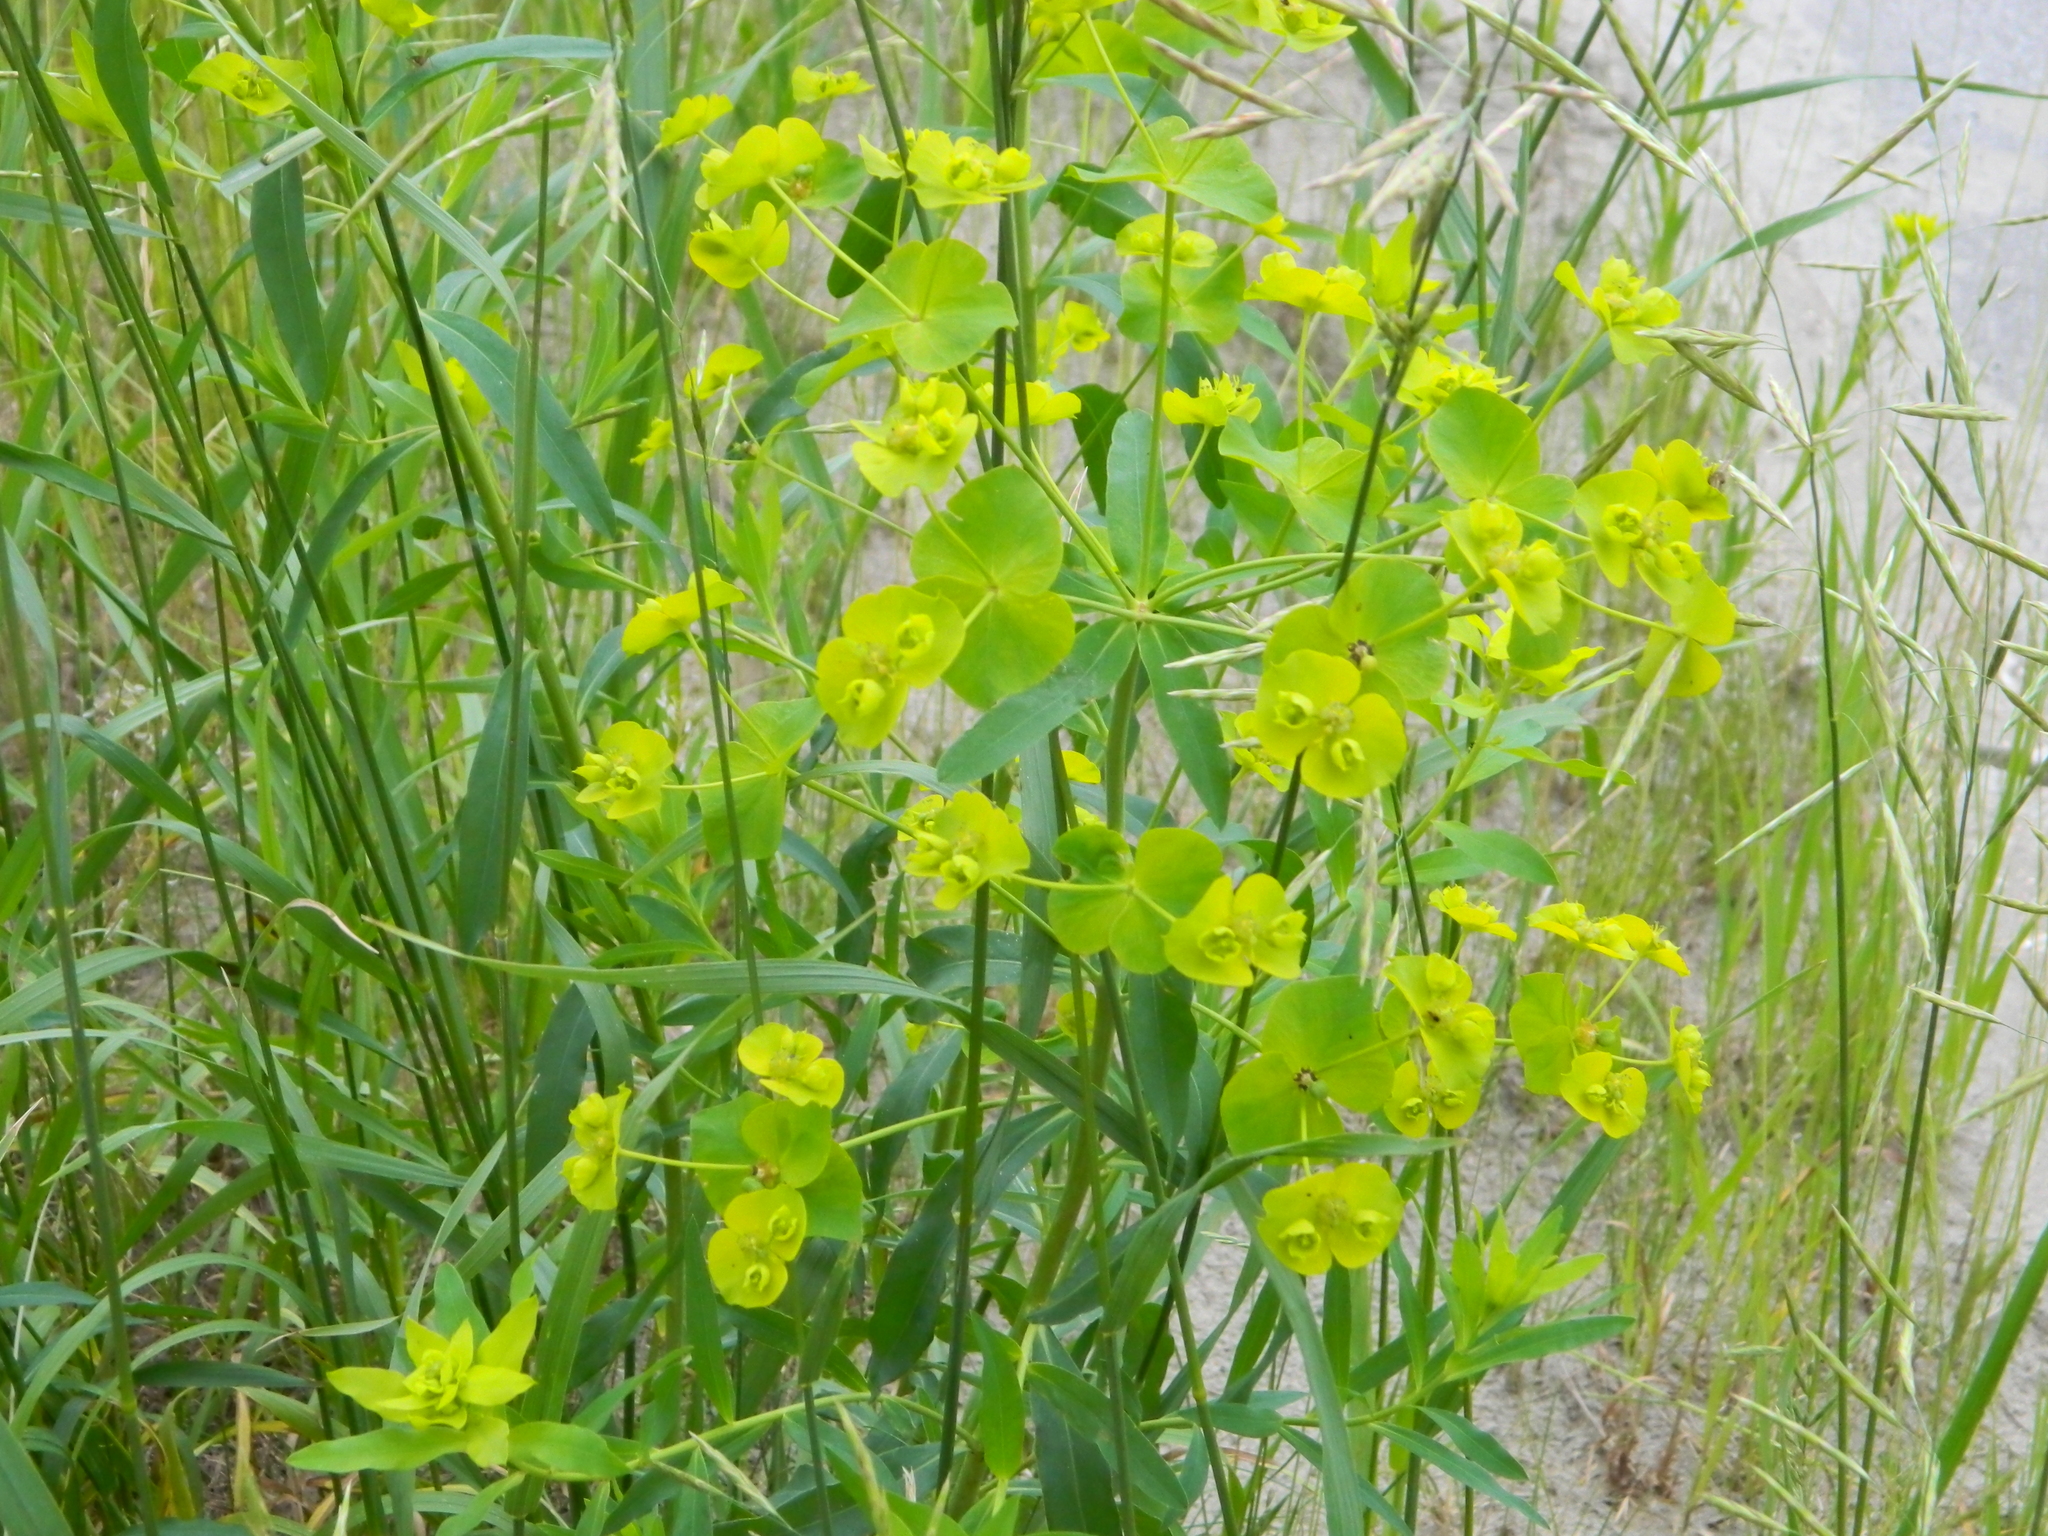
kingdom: Plantae
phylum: Tracheophyta
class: Magnoliopsida
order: Malpighiales
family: Euphorbiaceae
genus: Euphorbia
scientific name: Euphorbia virgata
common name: Leafy spurge
